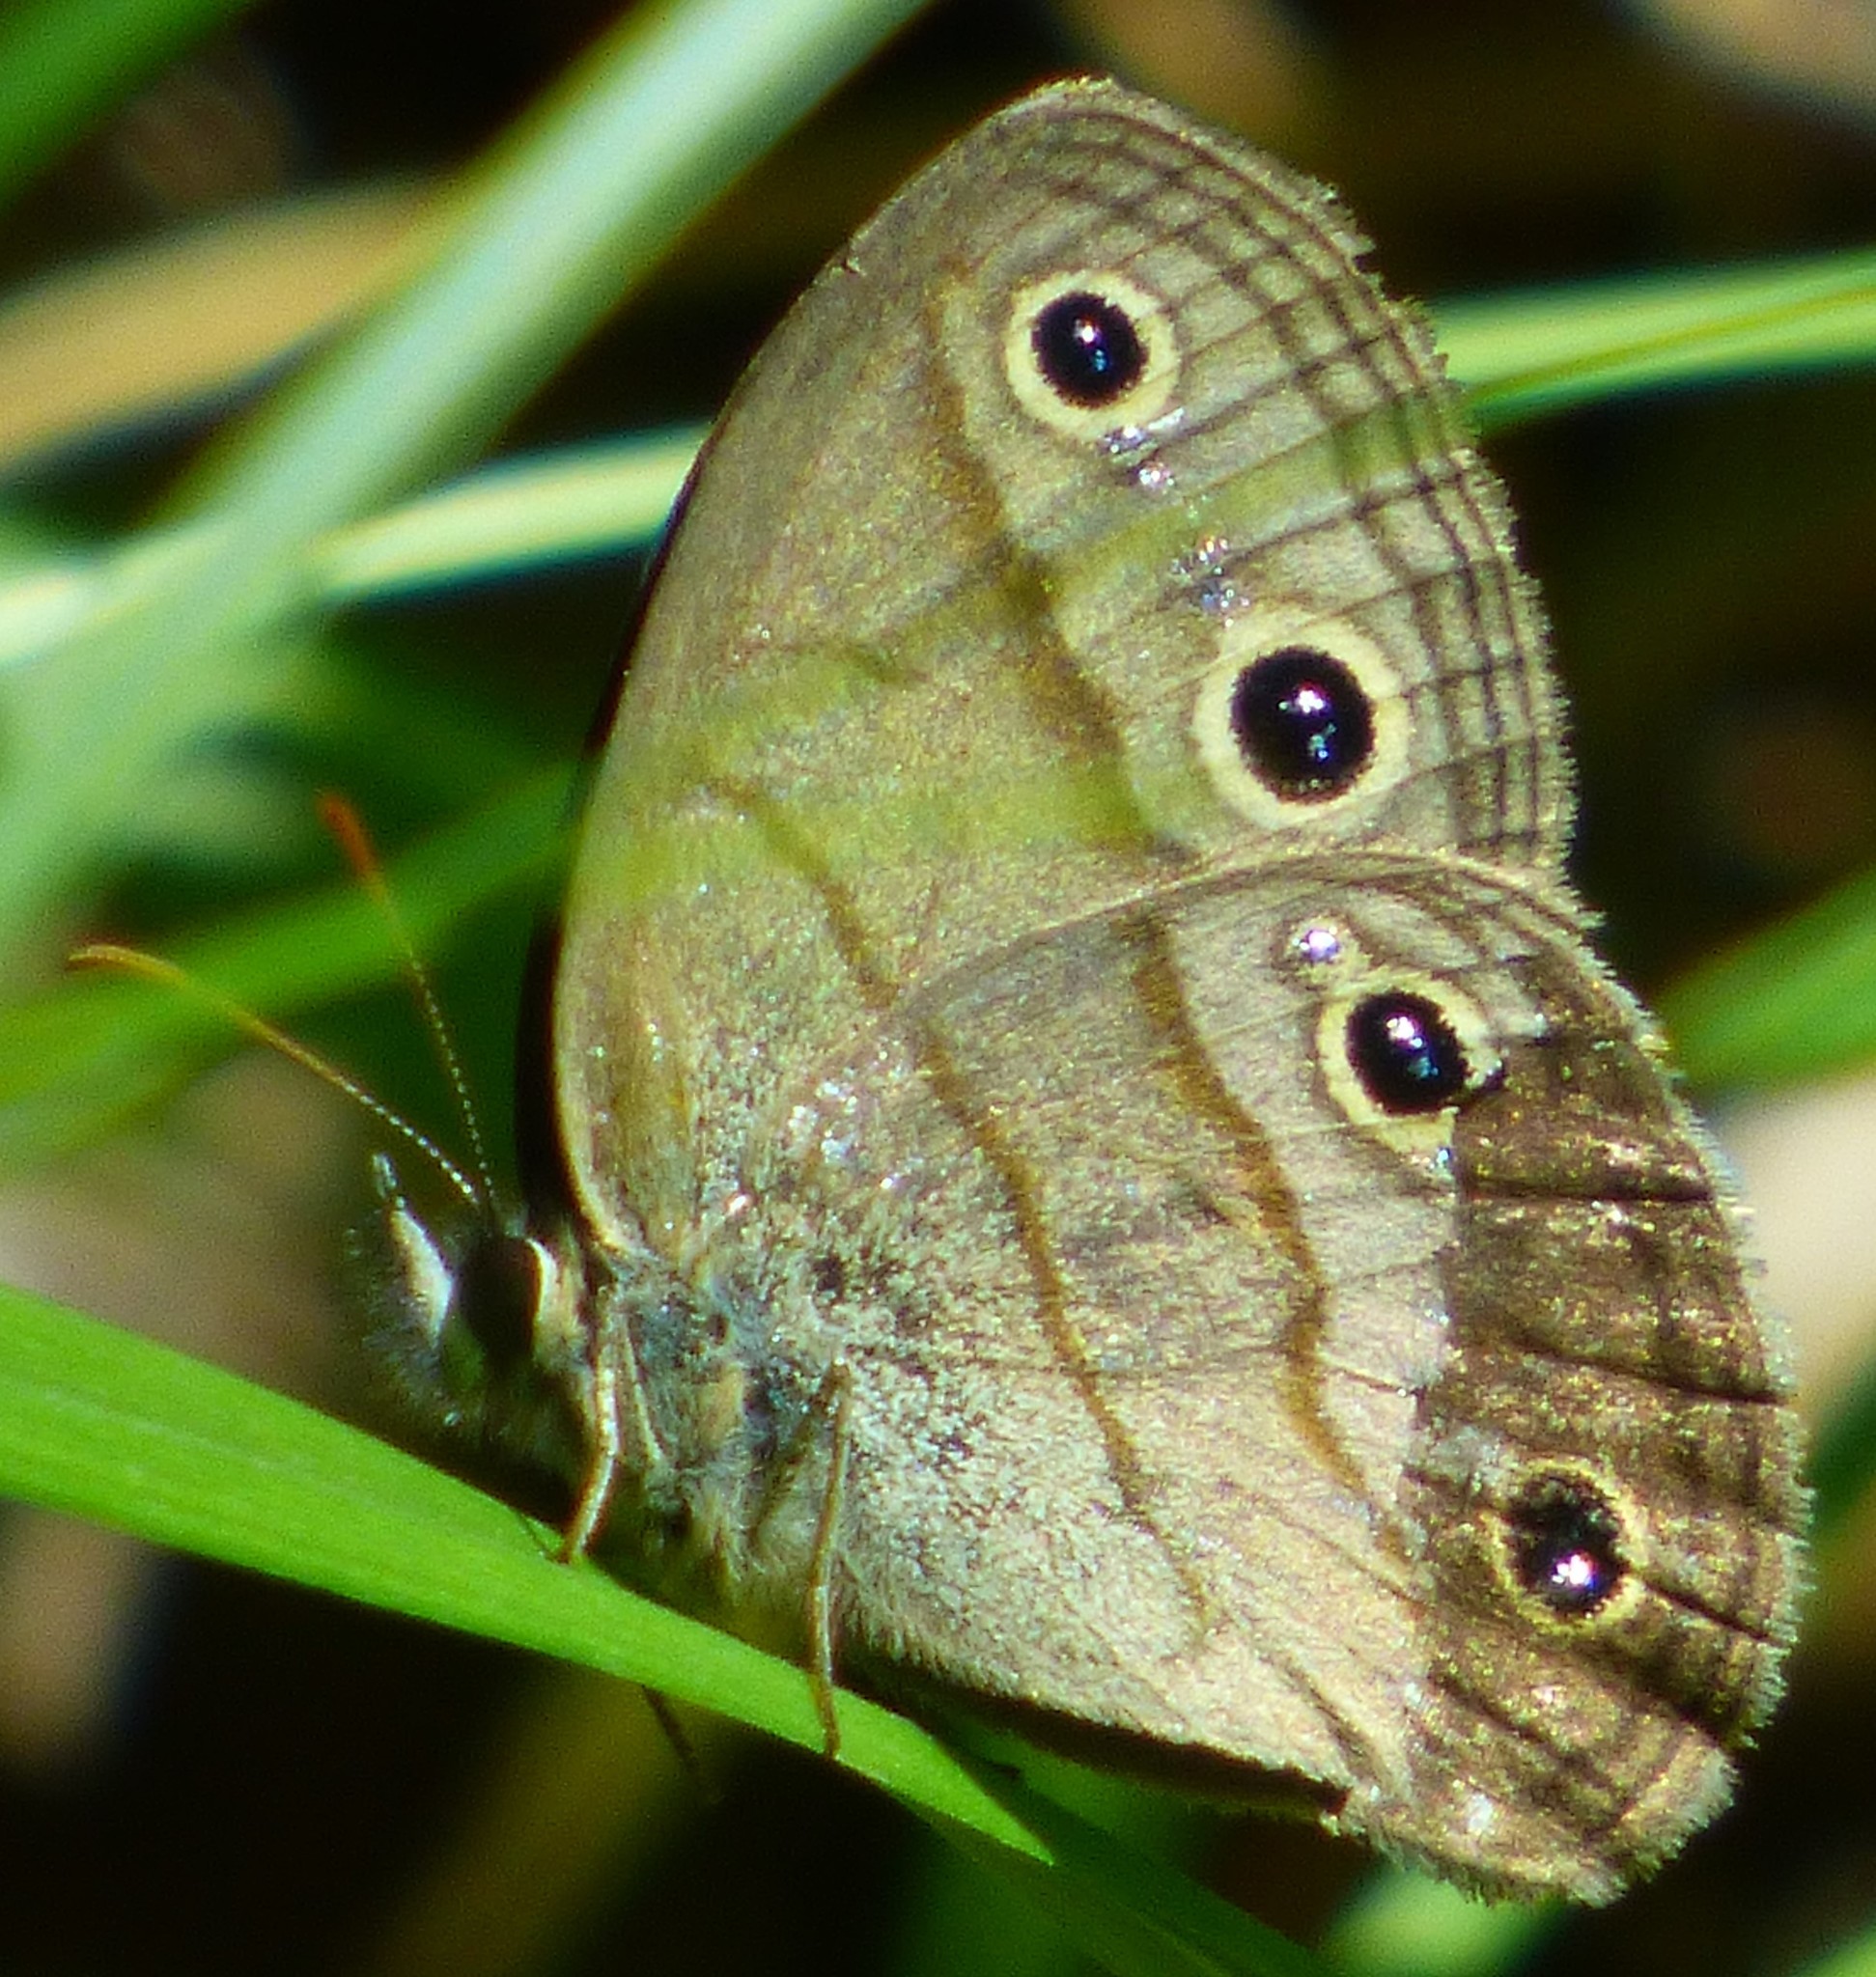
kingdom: Animalia
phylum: Arthropoda
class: Insecta
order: Lepidoptera
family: Nymphalidae
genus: Euptychia
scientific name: Euptychia cymela
